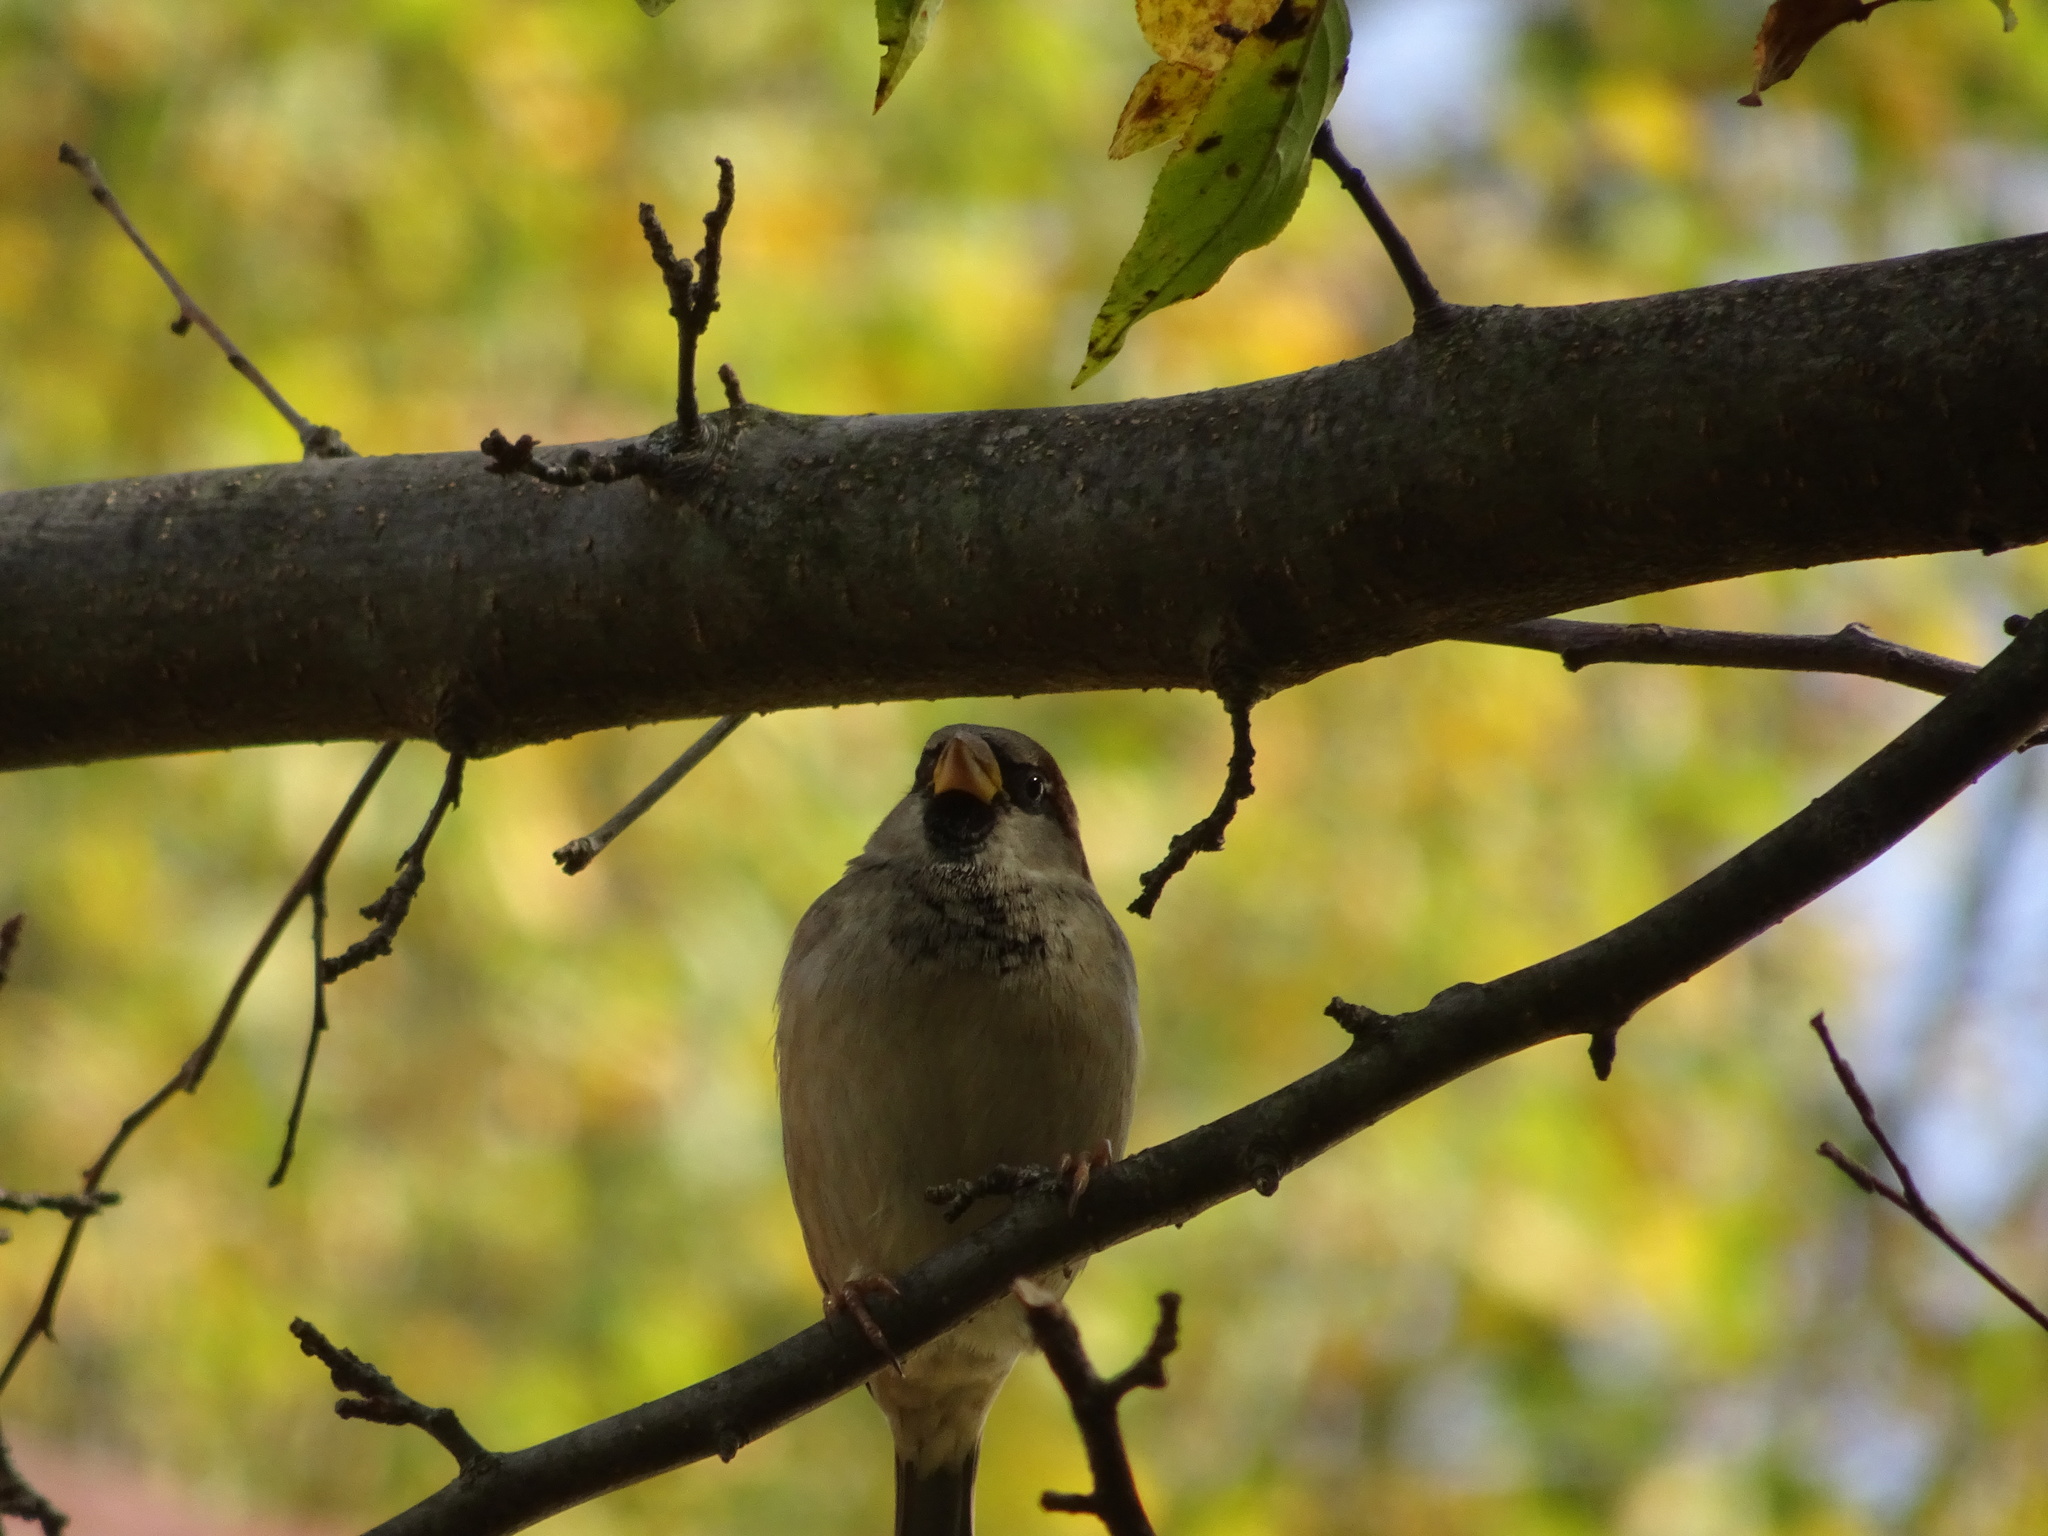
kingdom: Animalia
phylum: Chordata
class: Aves
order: Passeriformes
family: Passeridae
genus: Passer
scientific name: Passer domesticus
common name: House sparrow
